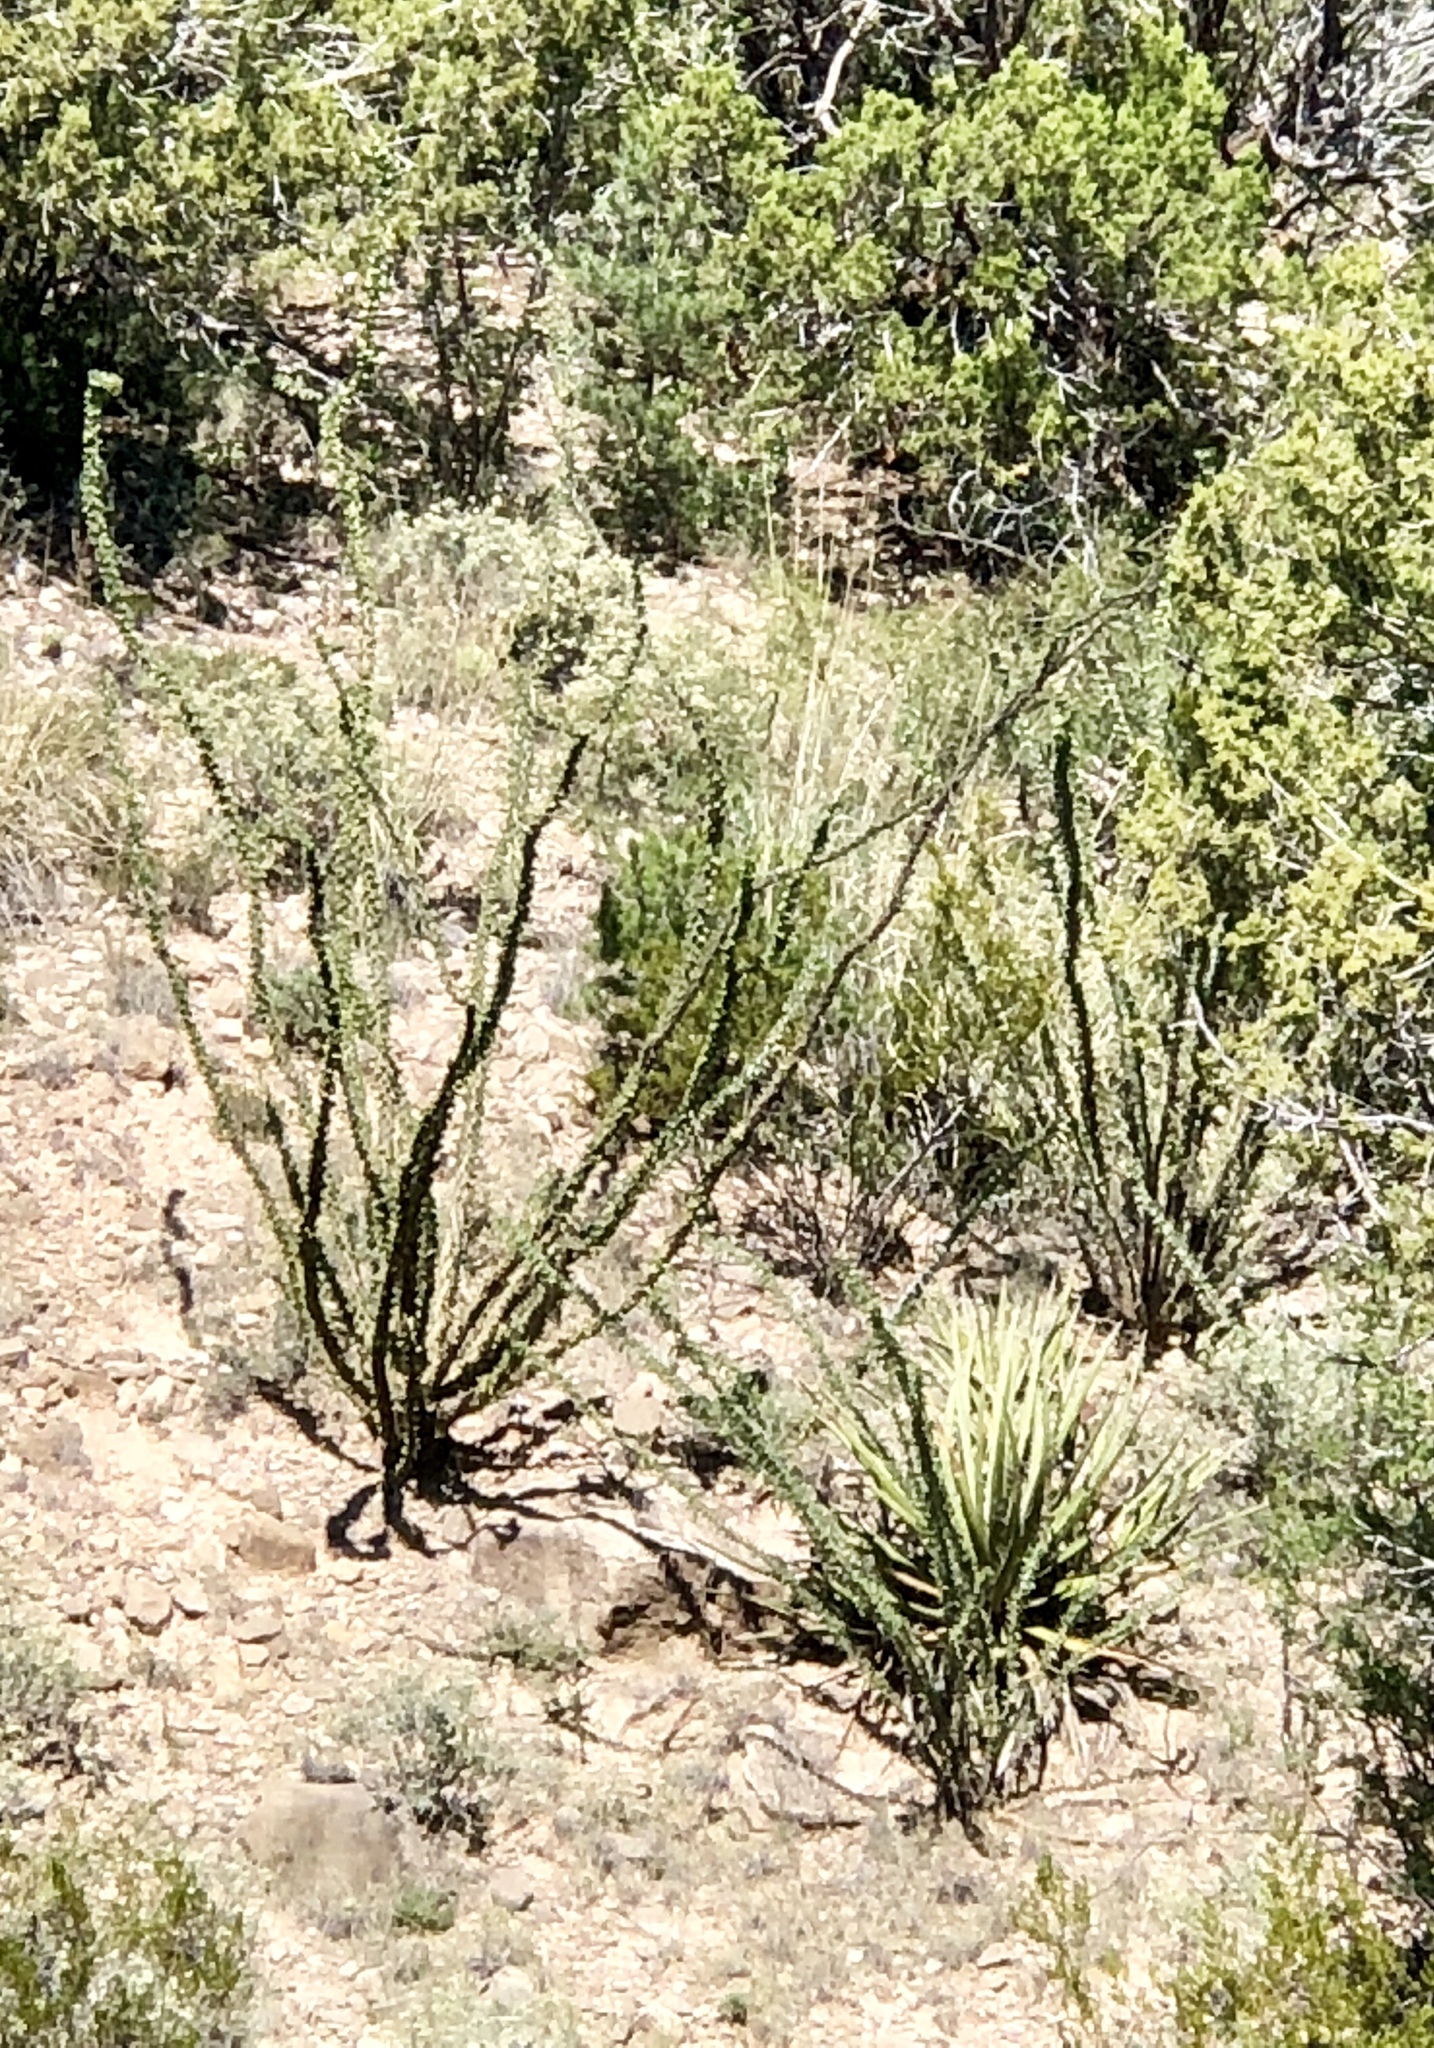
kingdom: Plantae
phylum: Tracheophyta
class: Magnoliopsida
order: Ericales
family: Fouquieriaceae
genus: Fouquieria
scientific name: Fouquieria splendens
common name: Vine-cactus
